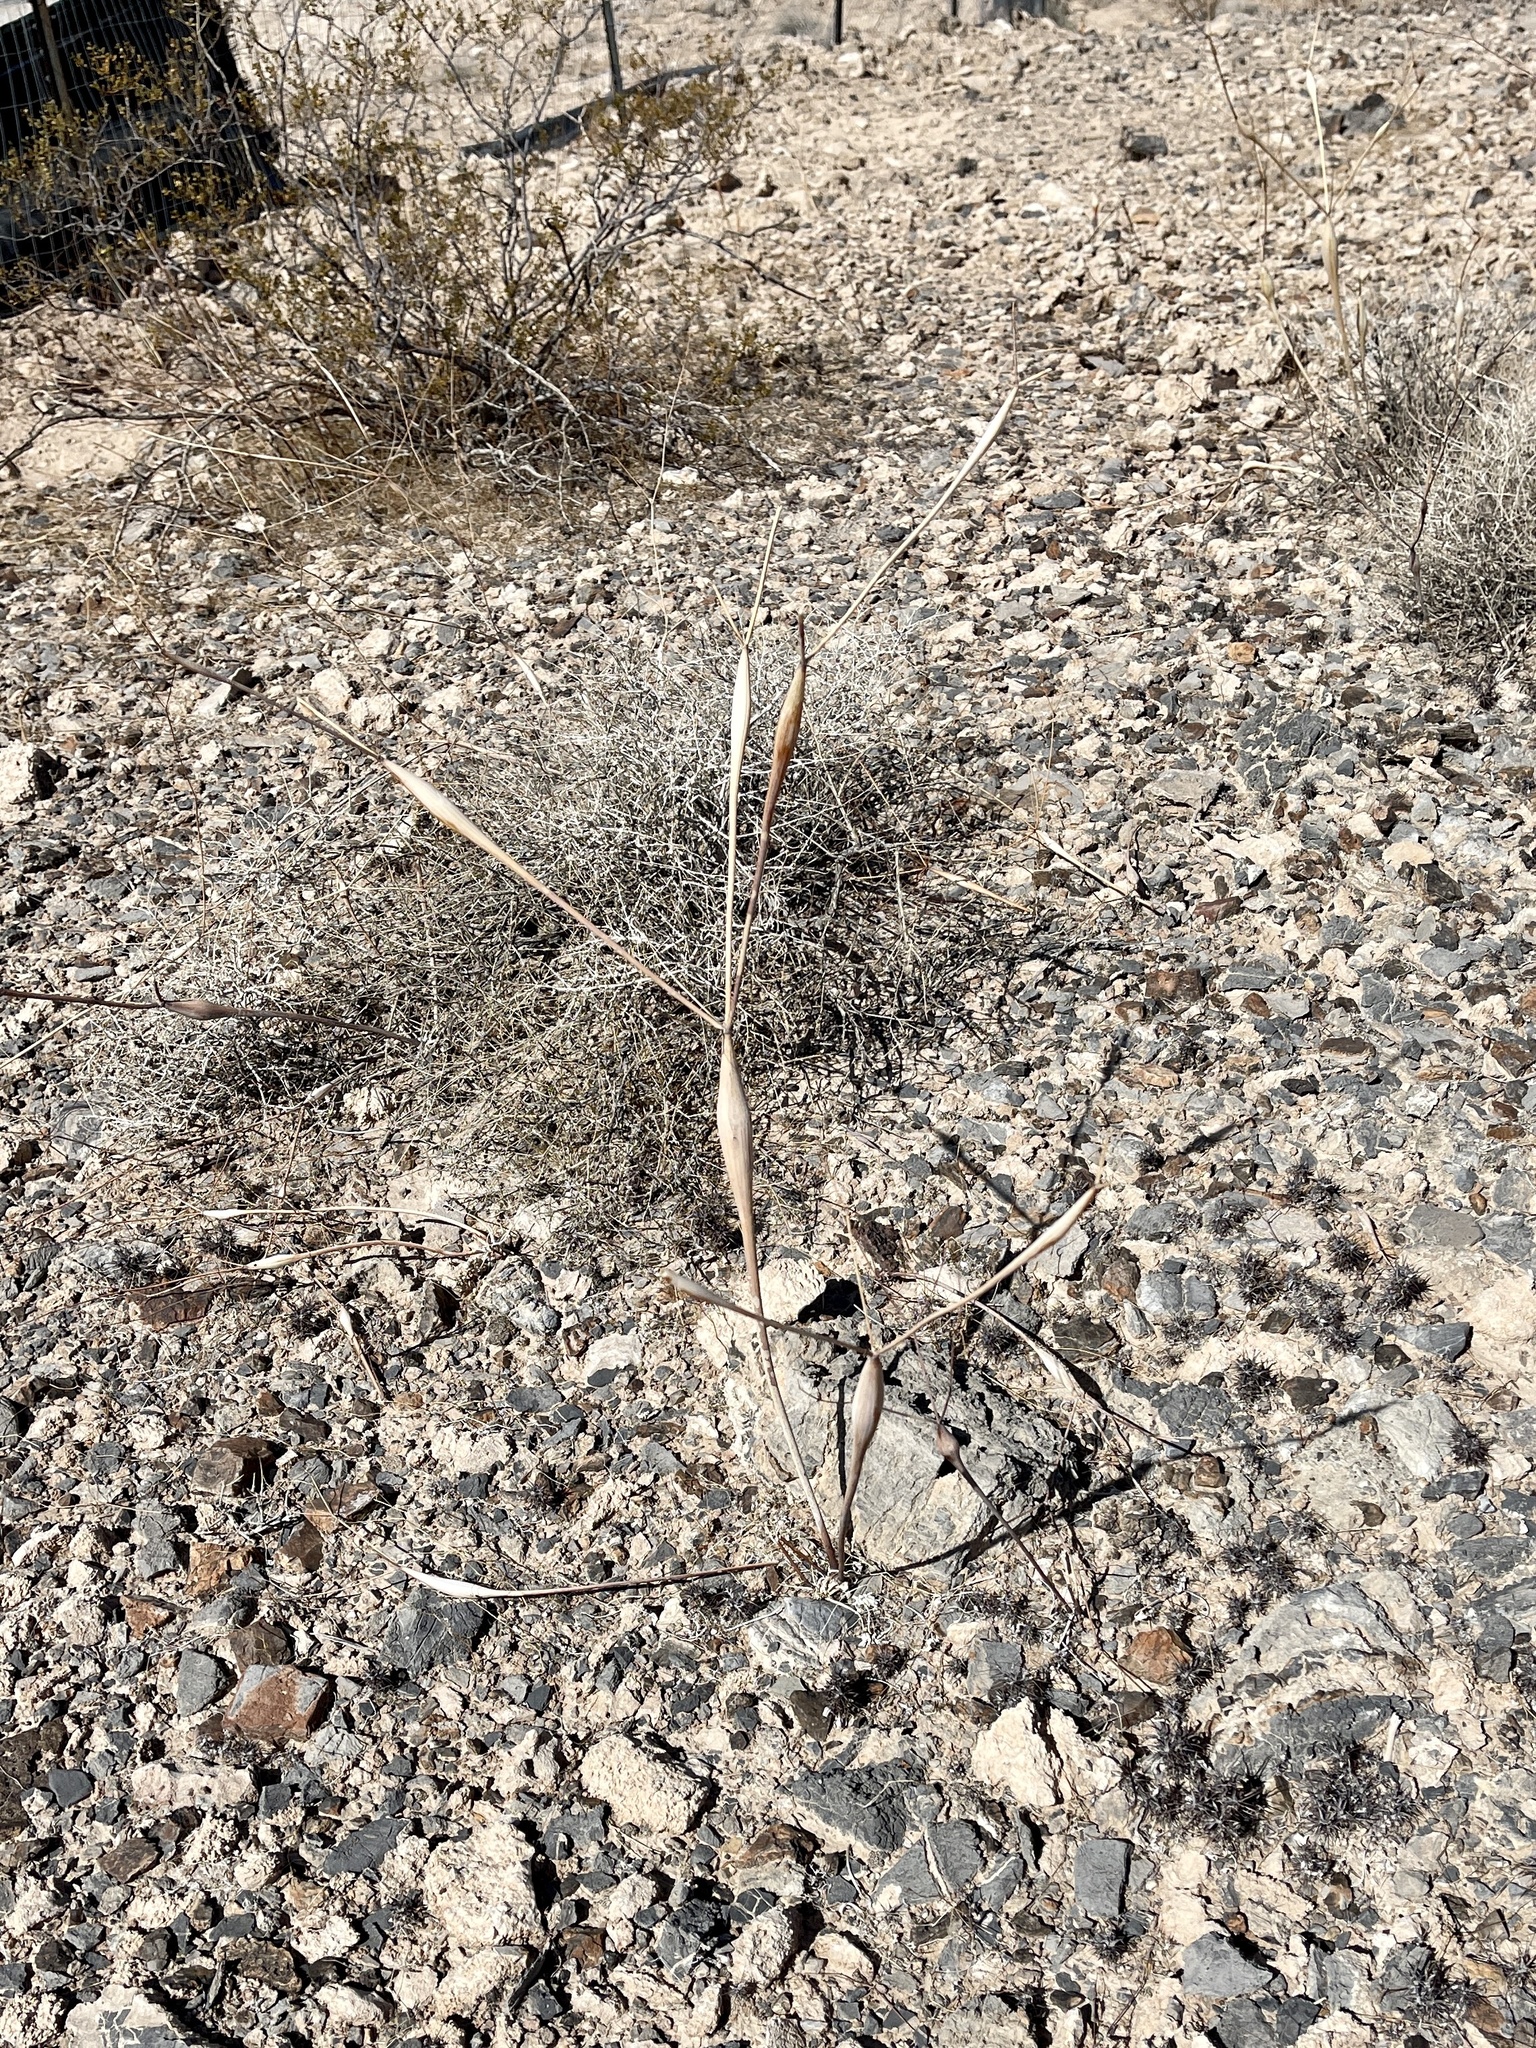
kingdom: Plantae
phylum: Tracheophyta
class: Magnoliopsida
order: Caryophyllales
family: Polygonaceae
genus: Eriogonum
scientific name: Eriogonum inflatum
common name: Desert trumpet
